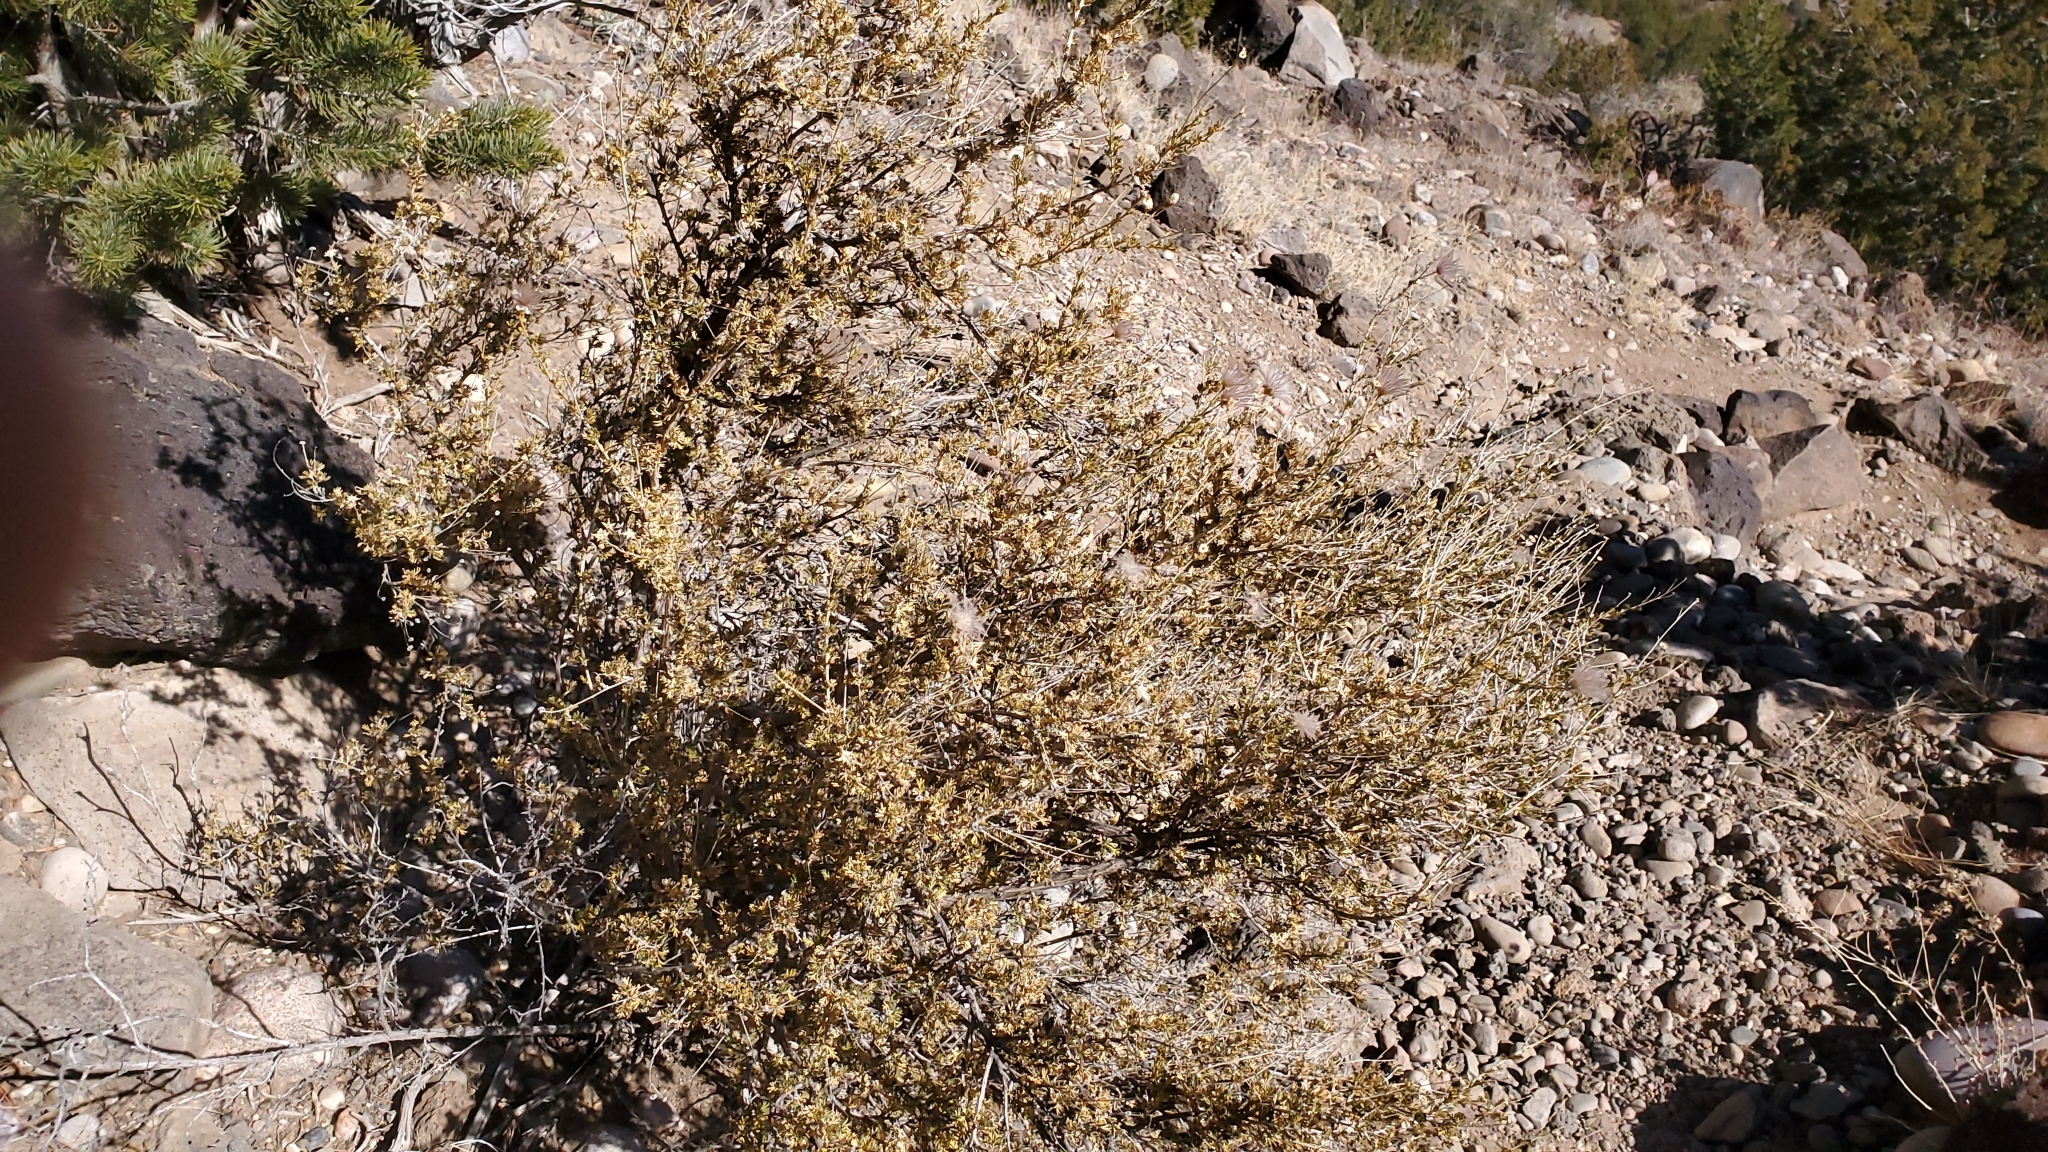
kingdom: Plantae
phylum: Tracheophyta
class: Magnoliopsida
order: Rosales
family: Rosaceae
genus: Fallugia
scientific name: Fallugia paradoxa
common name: Apache-plume
